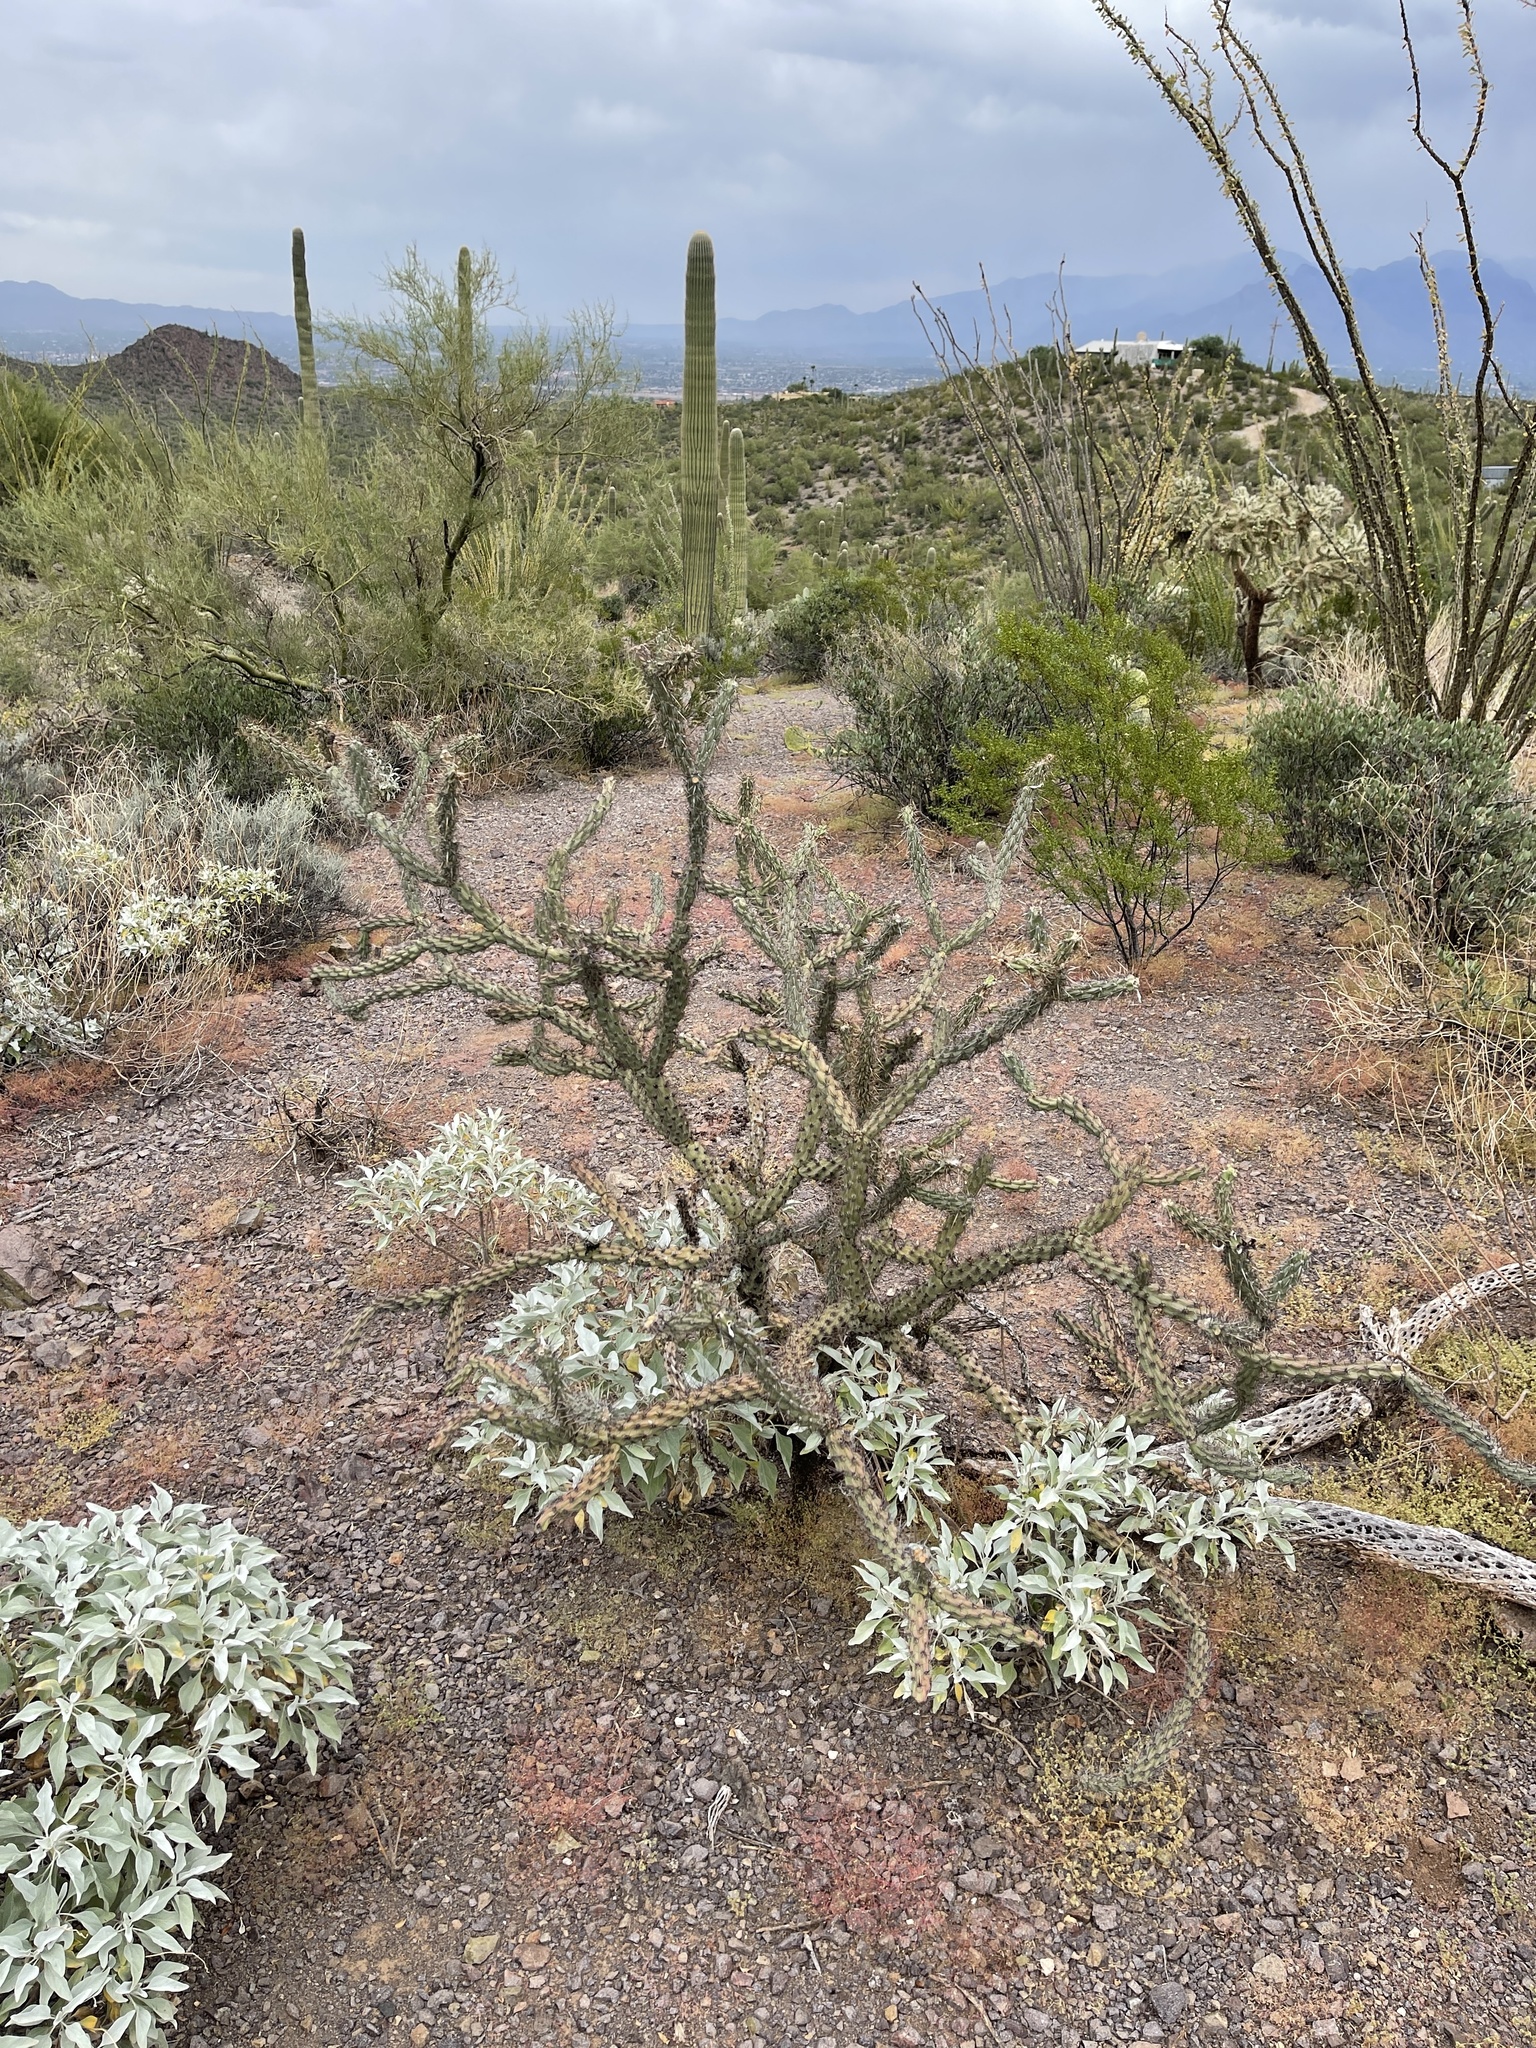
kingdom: Plantae
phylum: Tracheophyta
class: Magnoliopsida
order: Caryophyllales
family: Cactaceae
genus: Cylindropuntia
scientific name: Cylindropuntia acanthocarpa
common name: Buckhorn cholla
